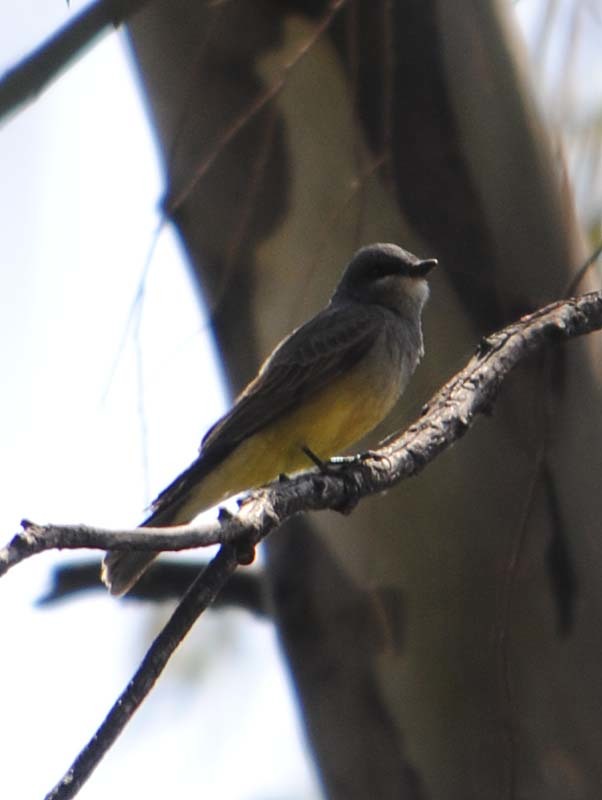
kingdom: Animalia
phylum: Chordata
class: Aves
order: Passeriformes
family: Tyrannidae
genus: Tyrannus
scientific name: Tyrannus vociferans
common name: Cassin's kingbird
